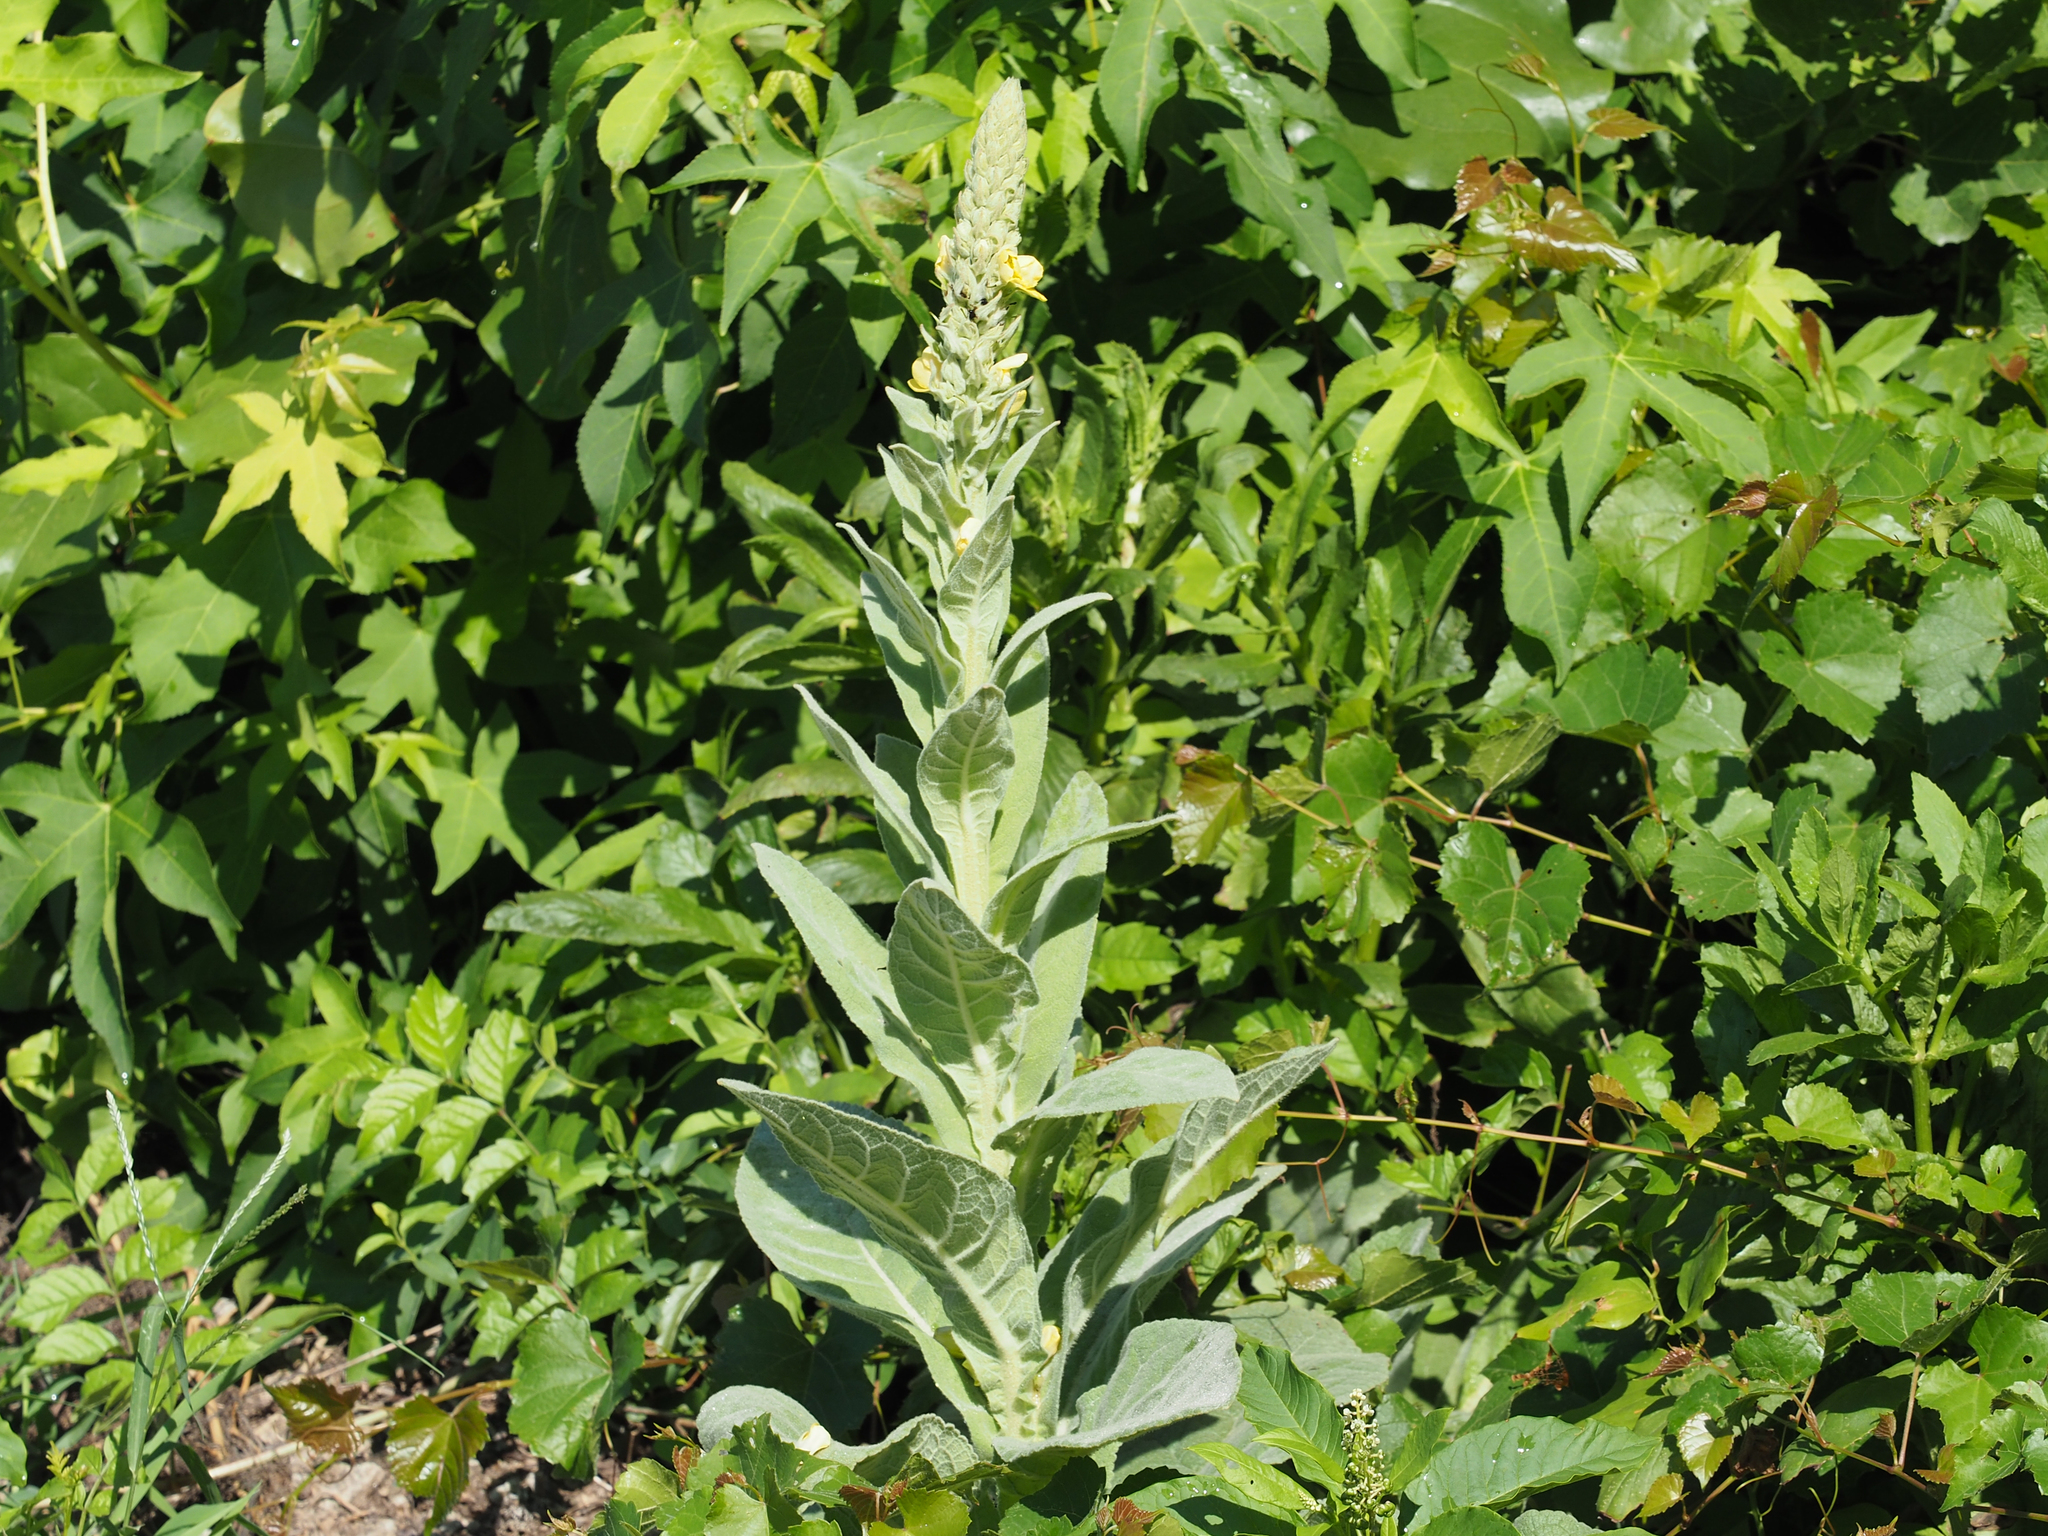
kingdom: Plantae
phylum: Tracheophyta
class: Magnoliopsida
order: Lamiales
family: Scrophulariaceae
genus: Verbascum
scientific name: Verbascum thapsus
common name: Common mullein
